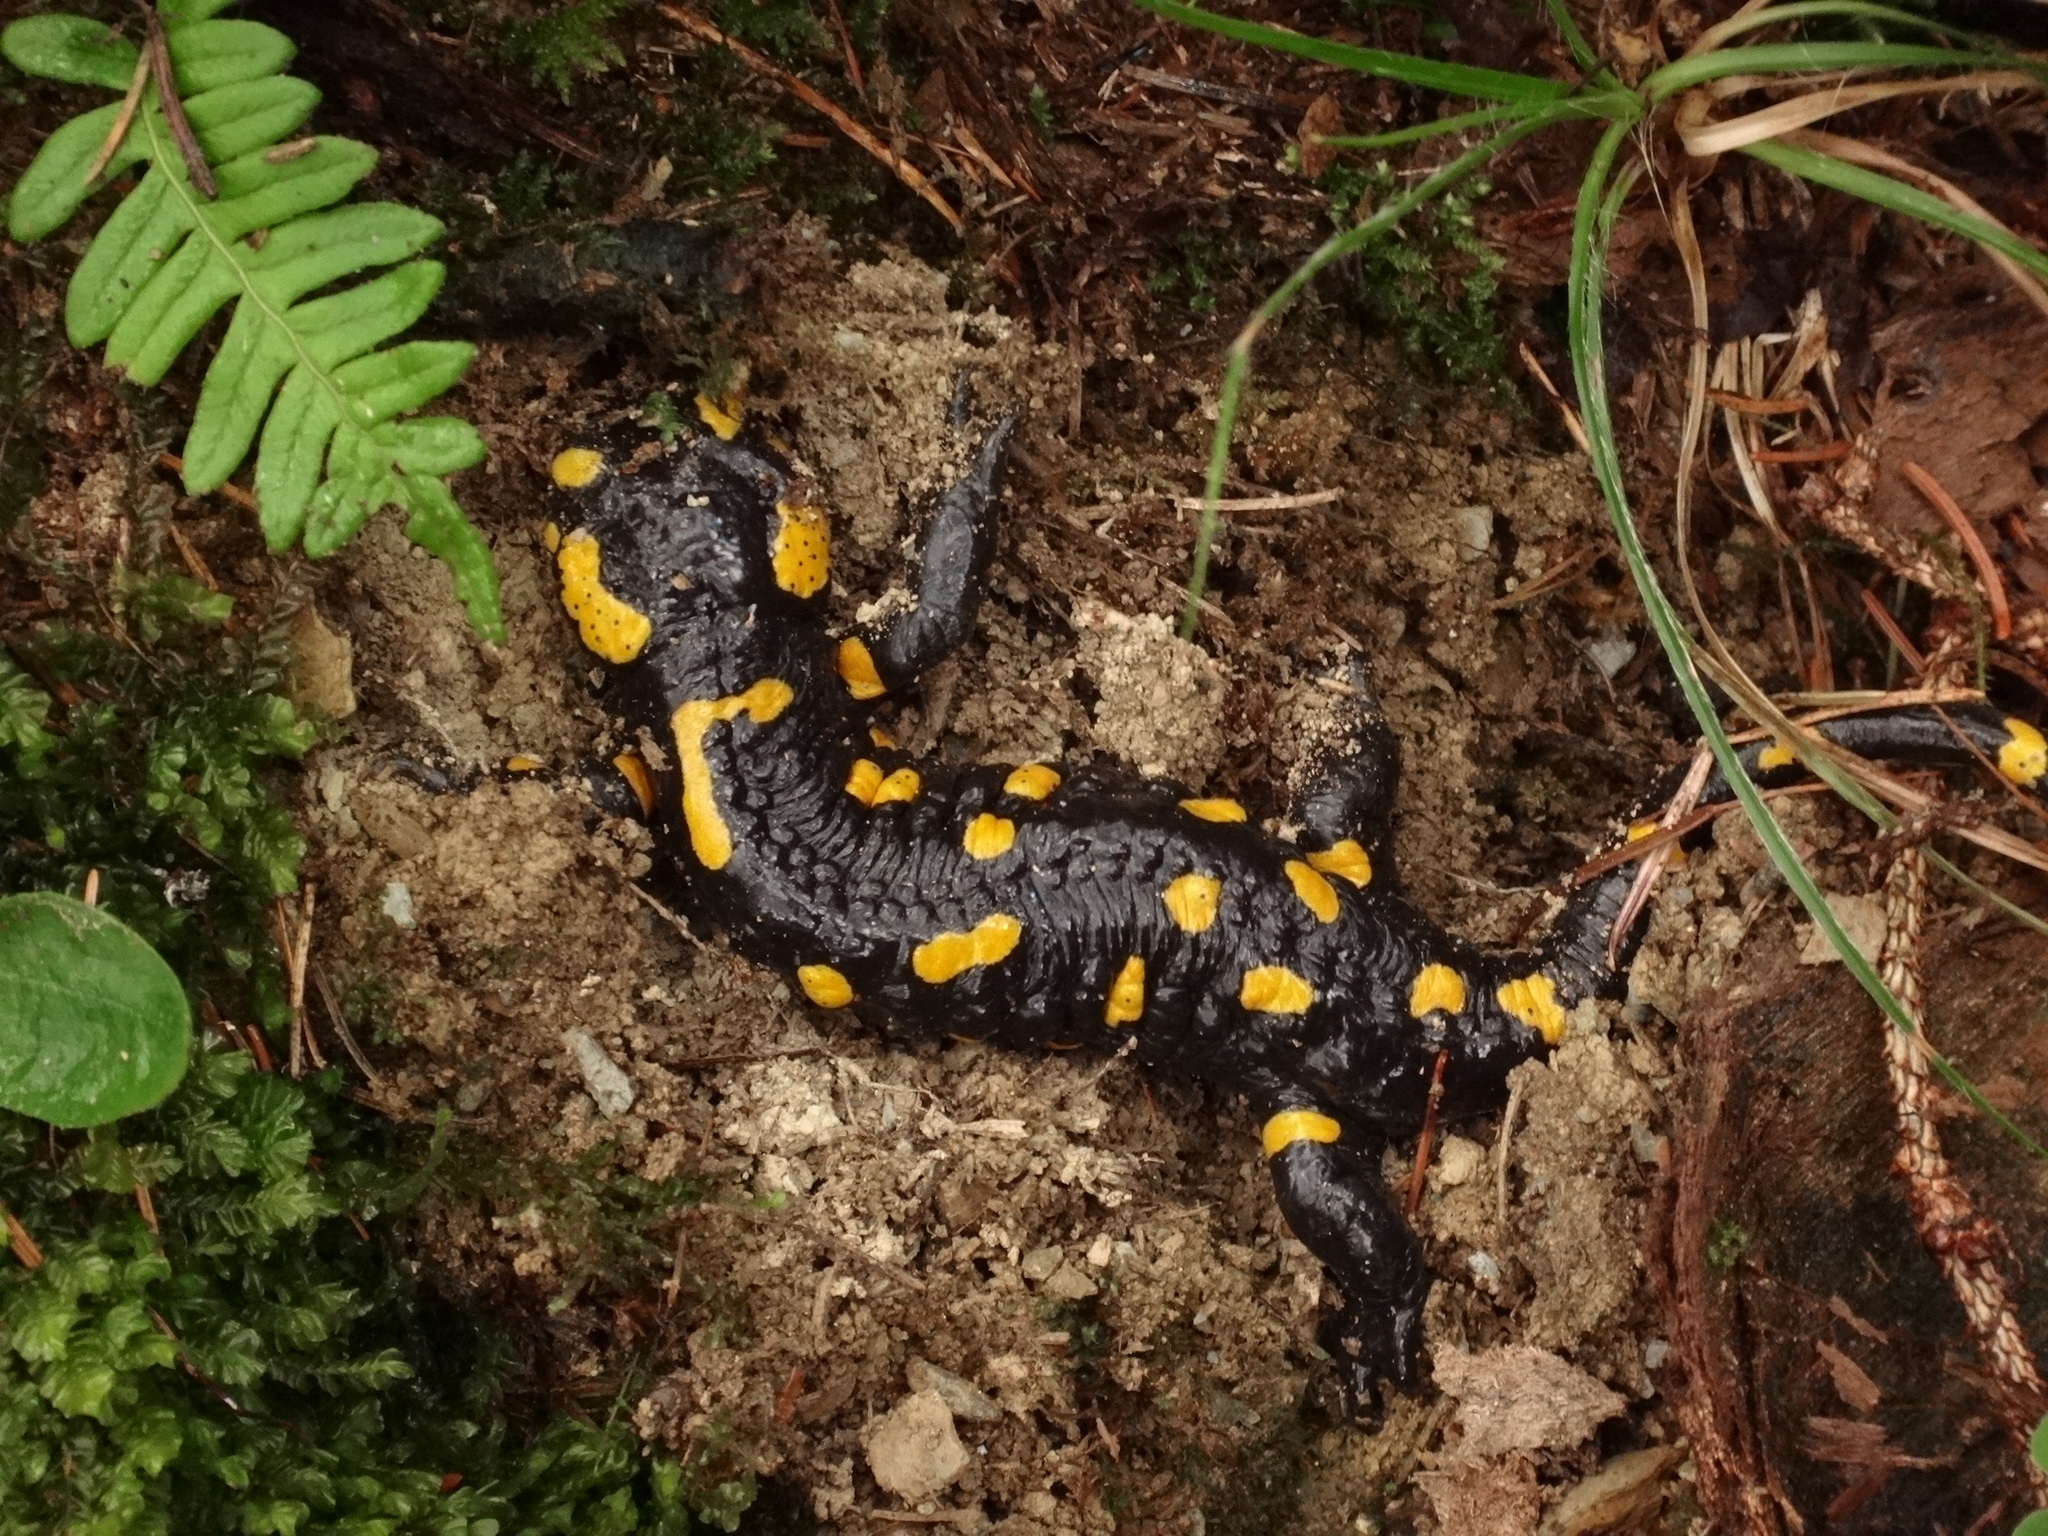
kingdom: Animalia
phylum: Chordata
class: Amphibia
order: Caudata
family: Salamandridae
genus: Salamandra
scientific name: Salamandra salamandra
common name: Fire salamander
